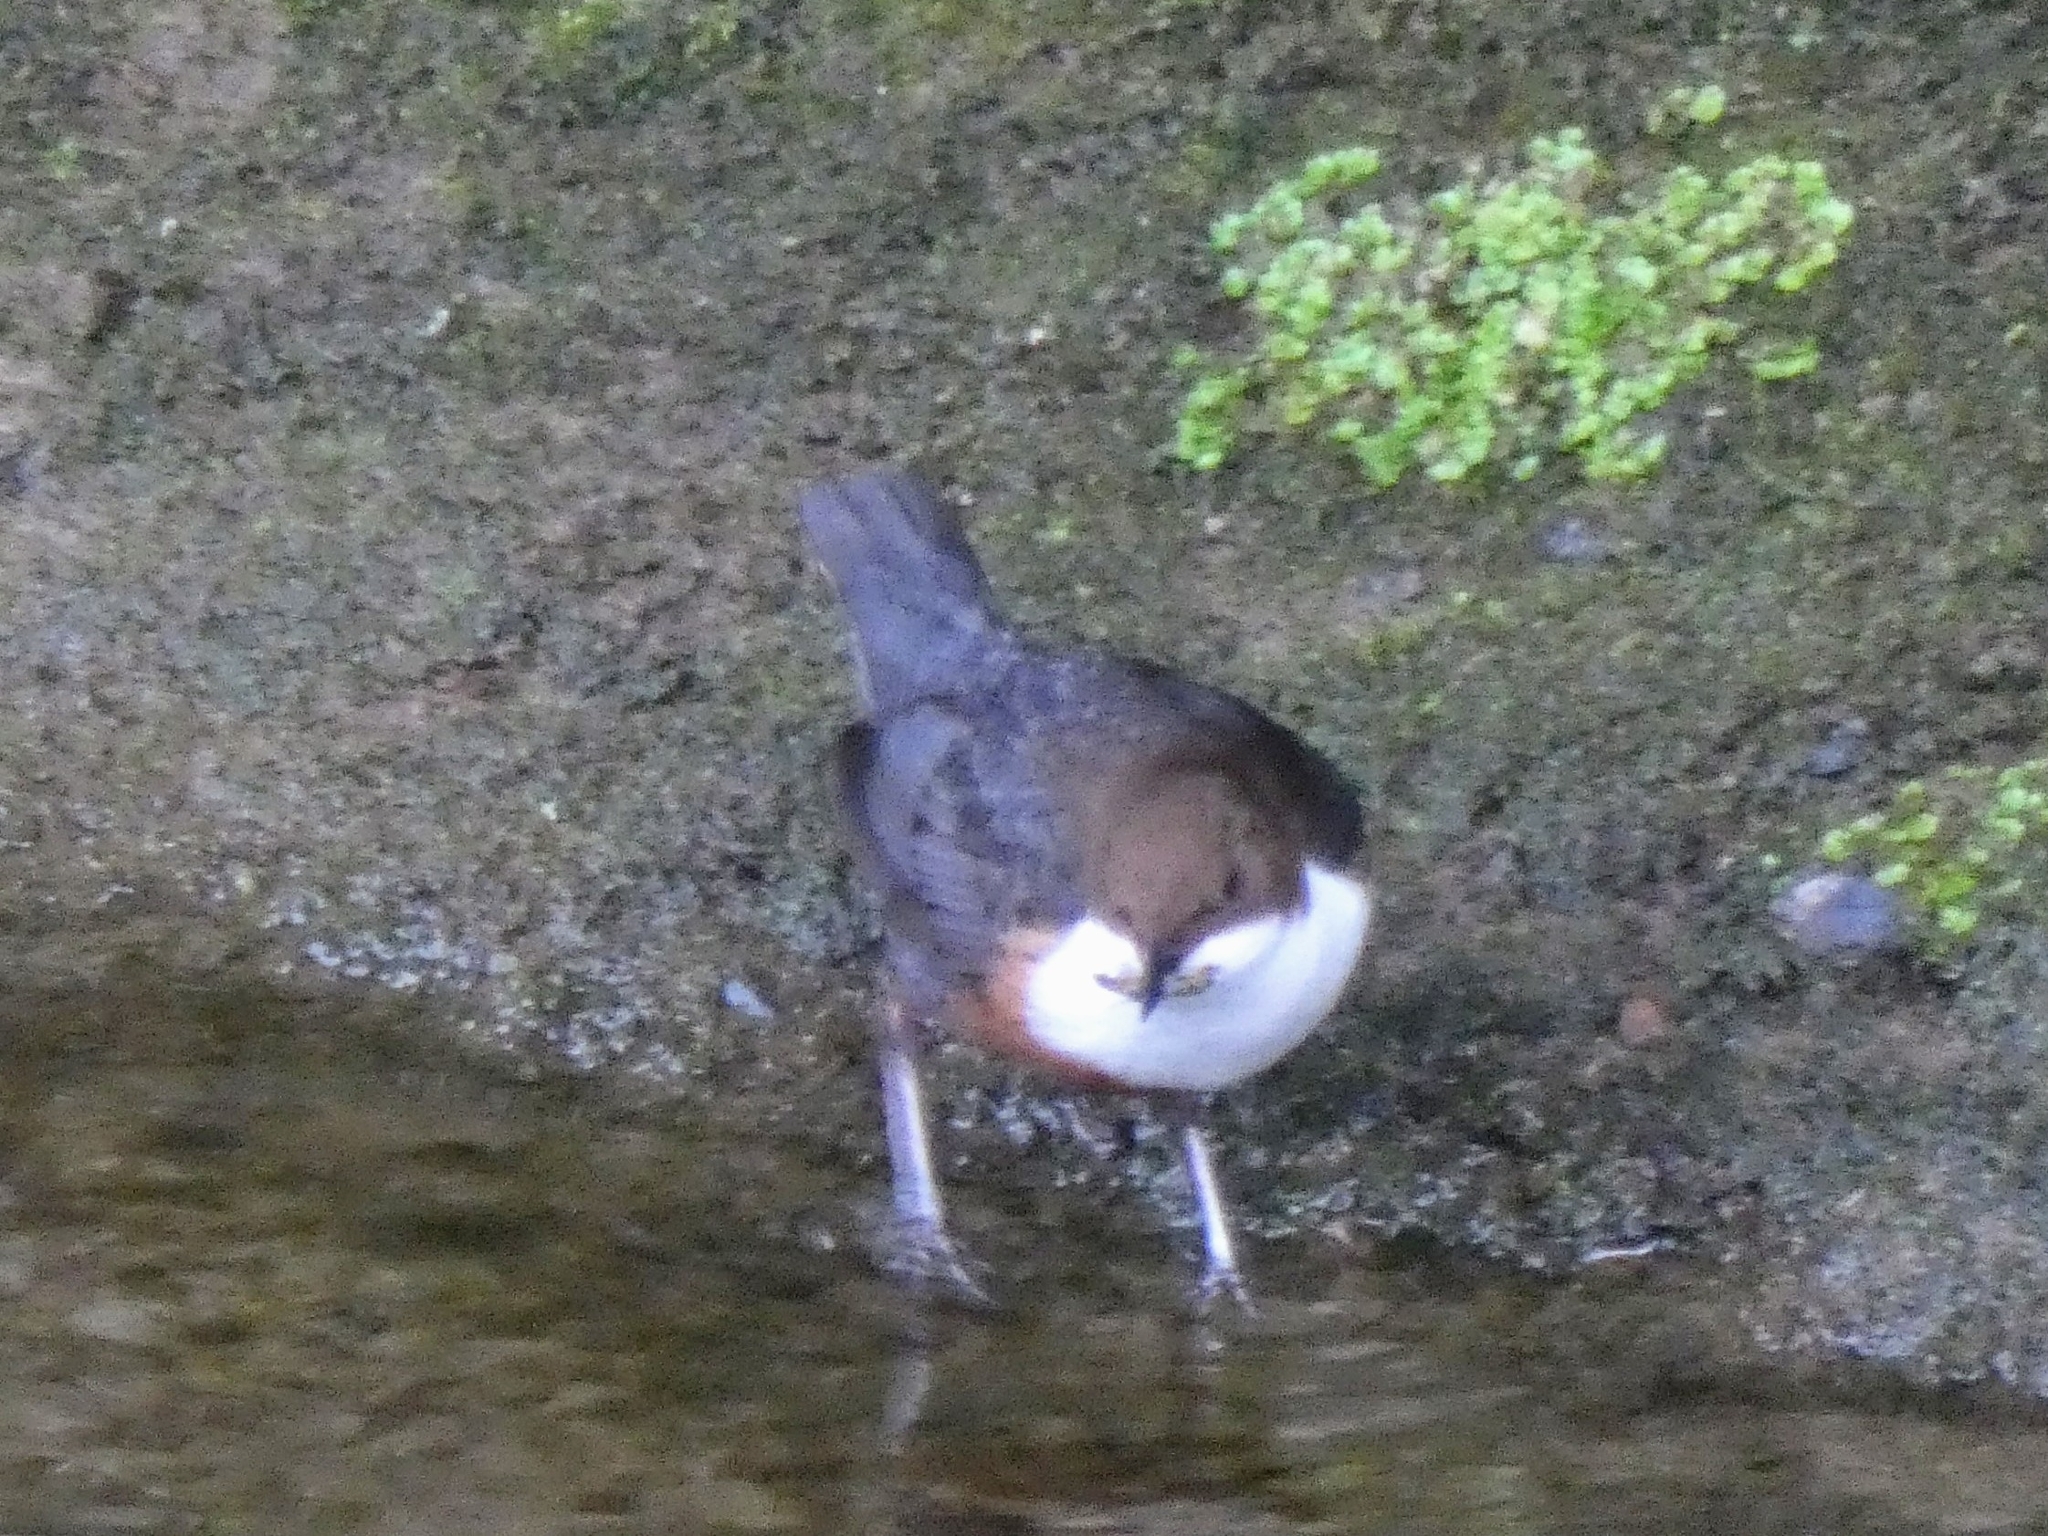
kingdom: Animalia
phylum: Chordata
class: Aves
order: Passeriformes
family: Cinclidae
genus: Cinclus
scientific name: Cinclus cinclus
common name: White-throated dipper
